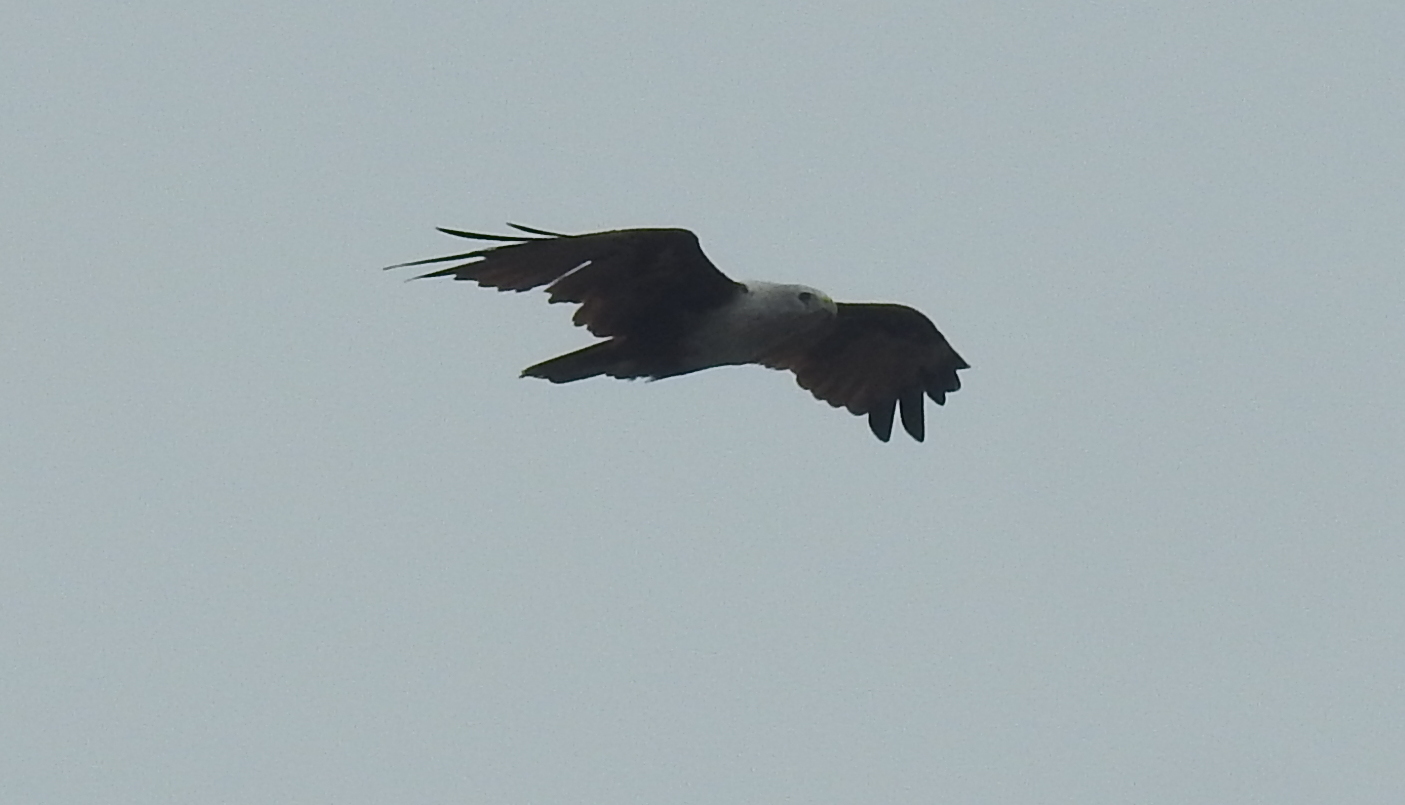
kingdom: Animalia
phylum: Chordata
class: Aves
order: Accipitriformes
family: Accipitridae
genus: Haliastur
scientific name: Haliastur indus
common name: Brahminy kite
